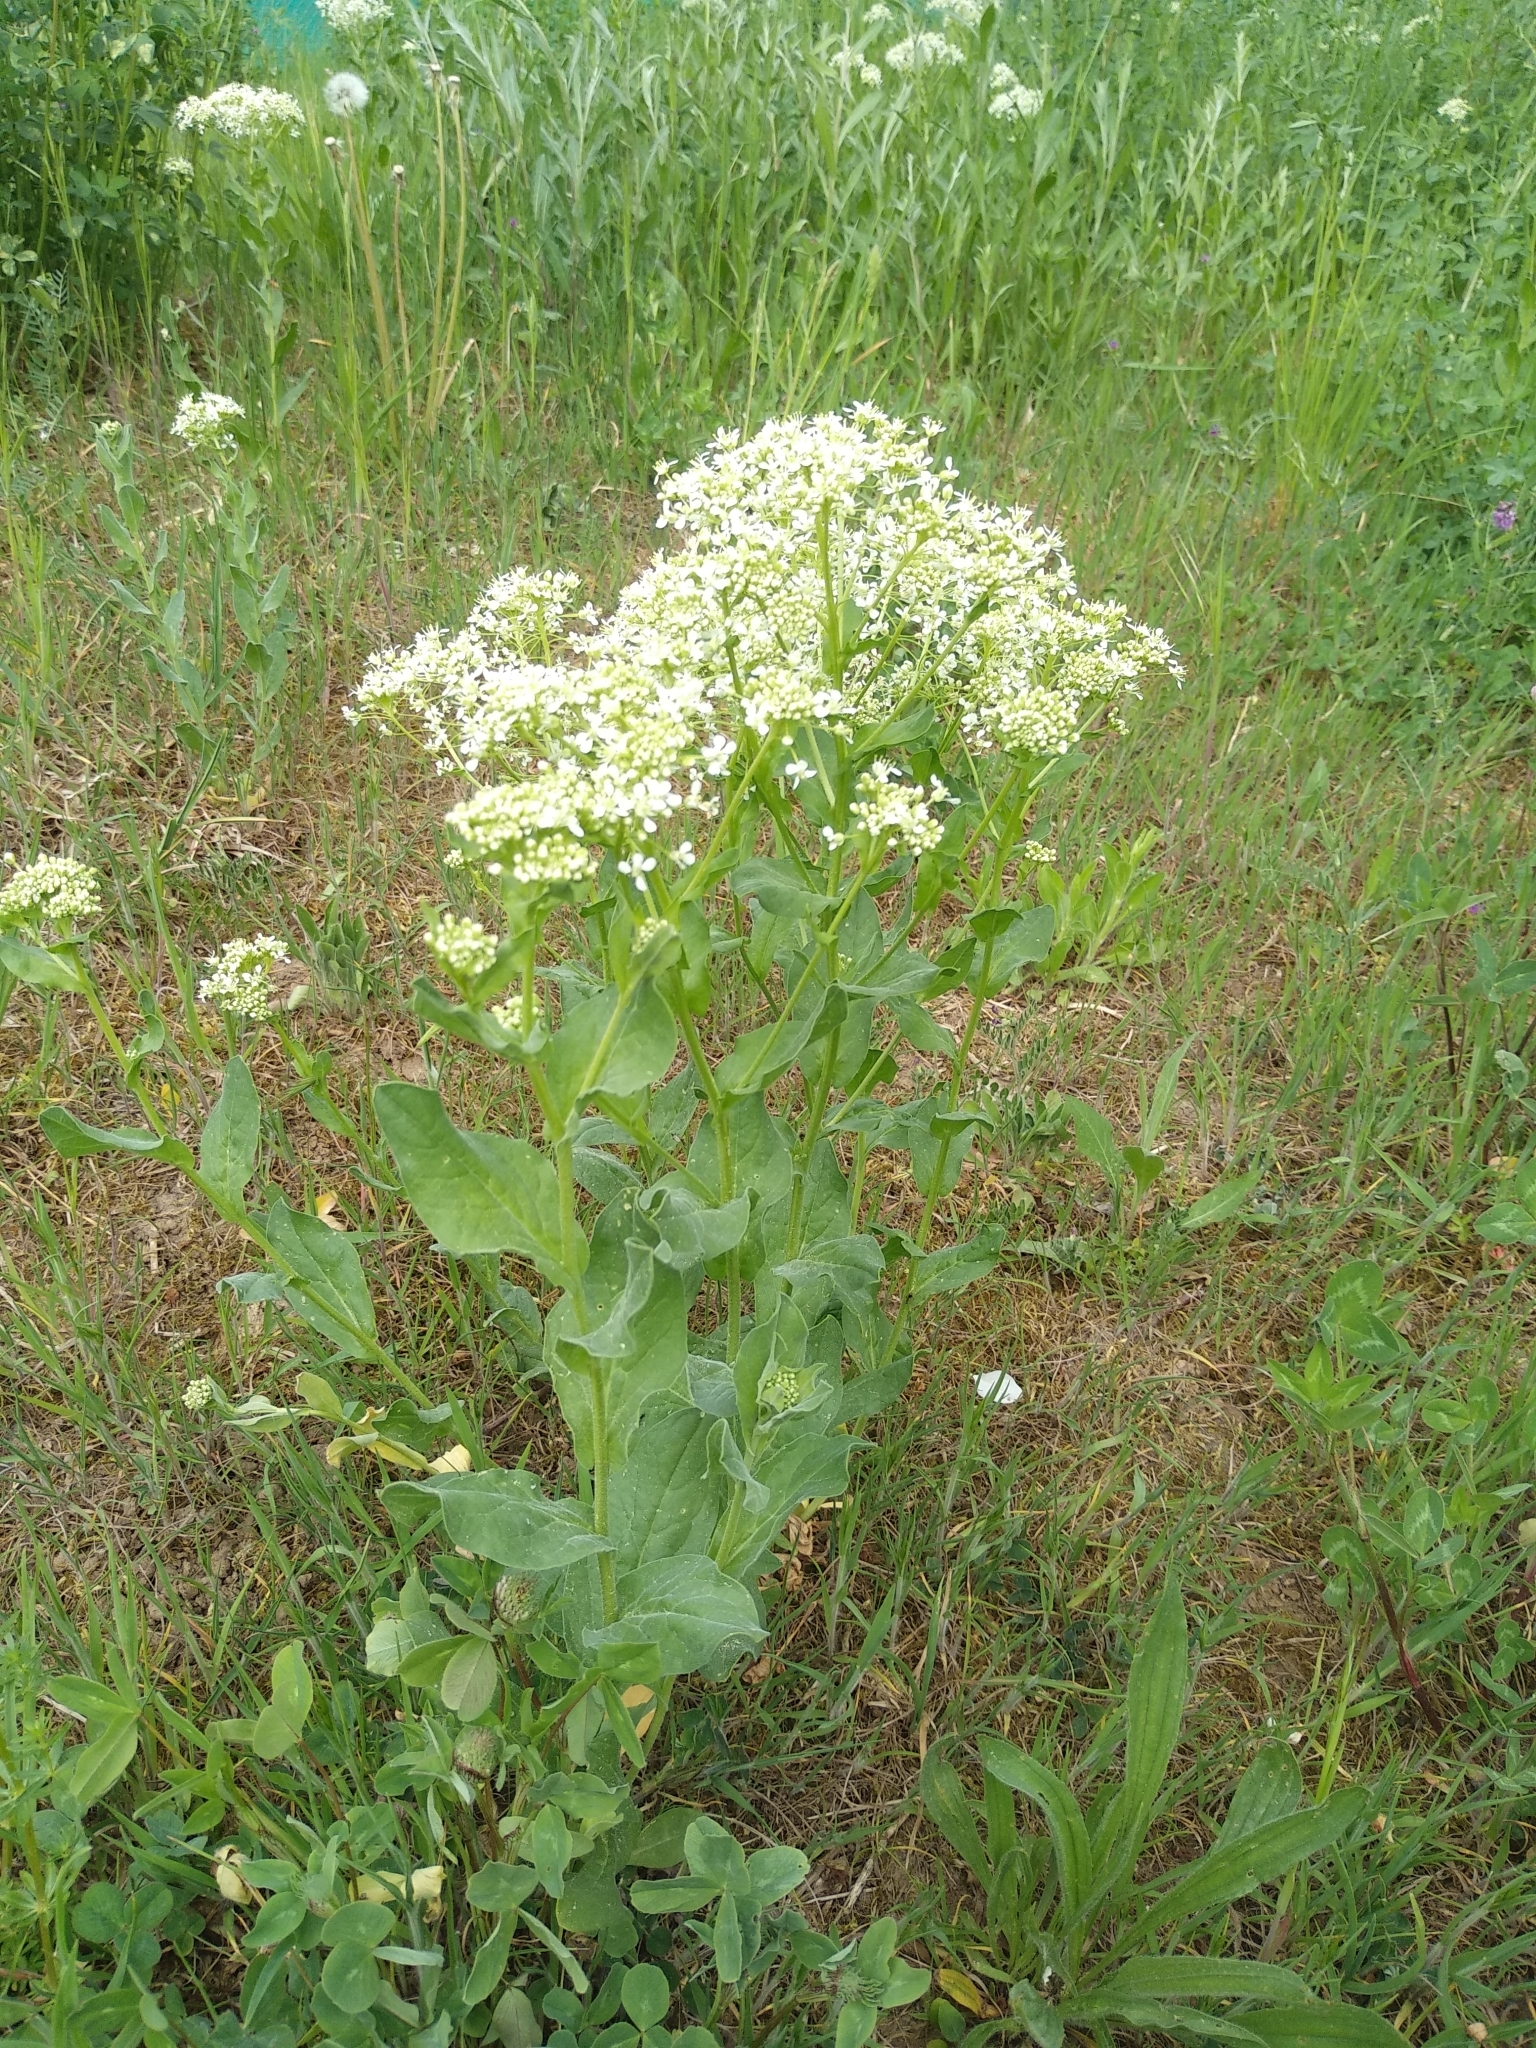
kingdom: Plantae
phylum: Tracheophyta
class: Magnoliopsida
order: Brassicales
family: Brassicaceae
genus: Lepidium
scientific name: Lepidium draba
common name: Hoary cress
